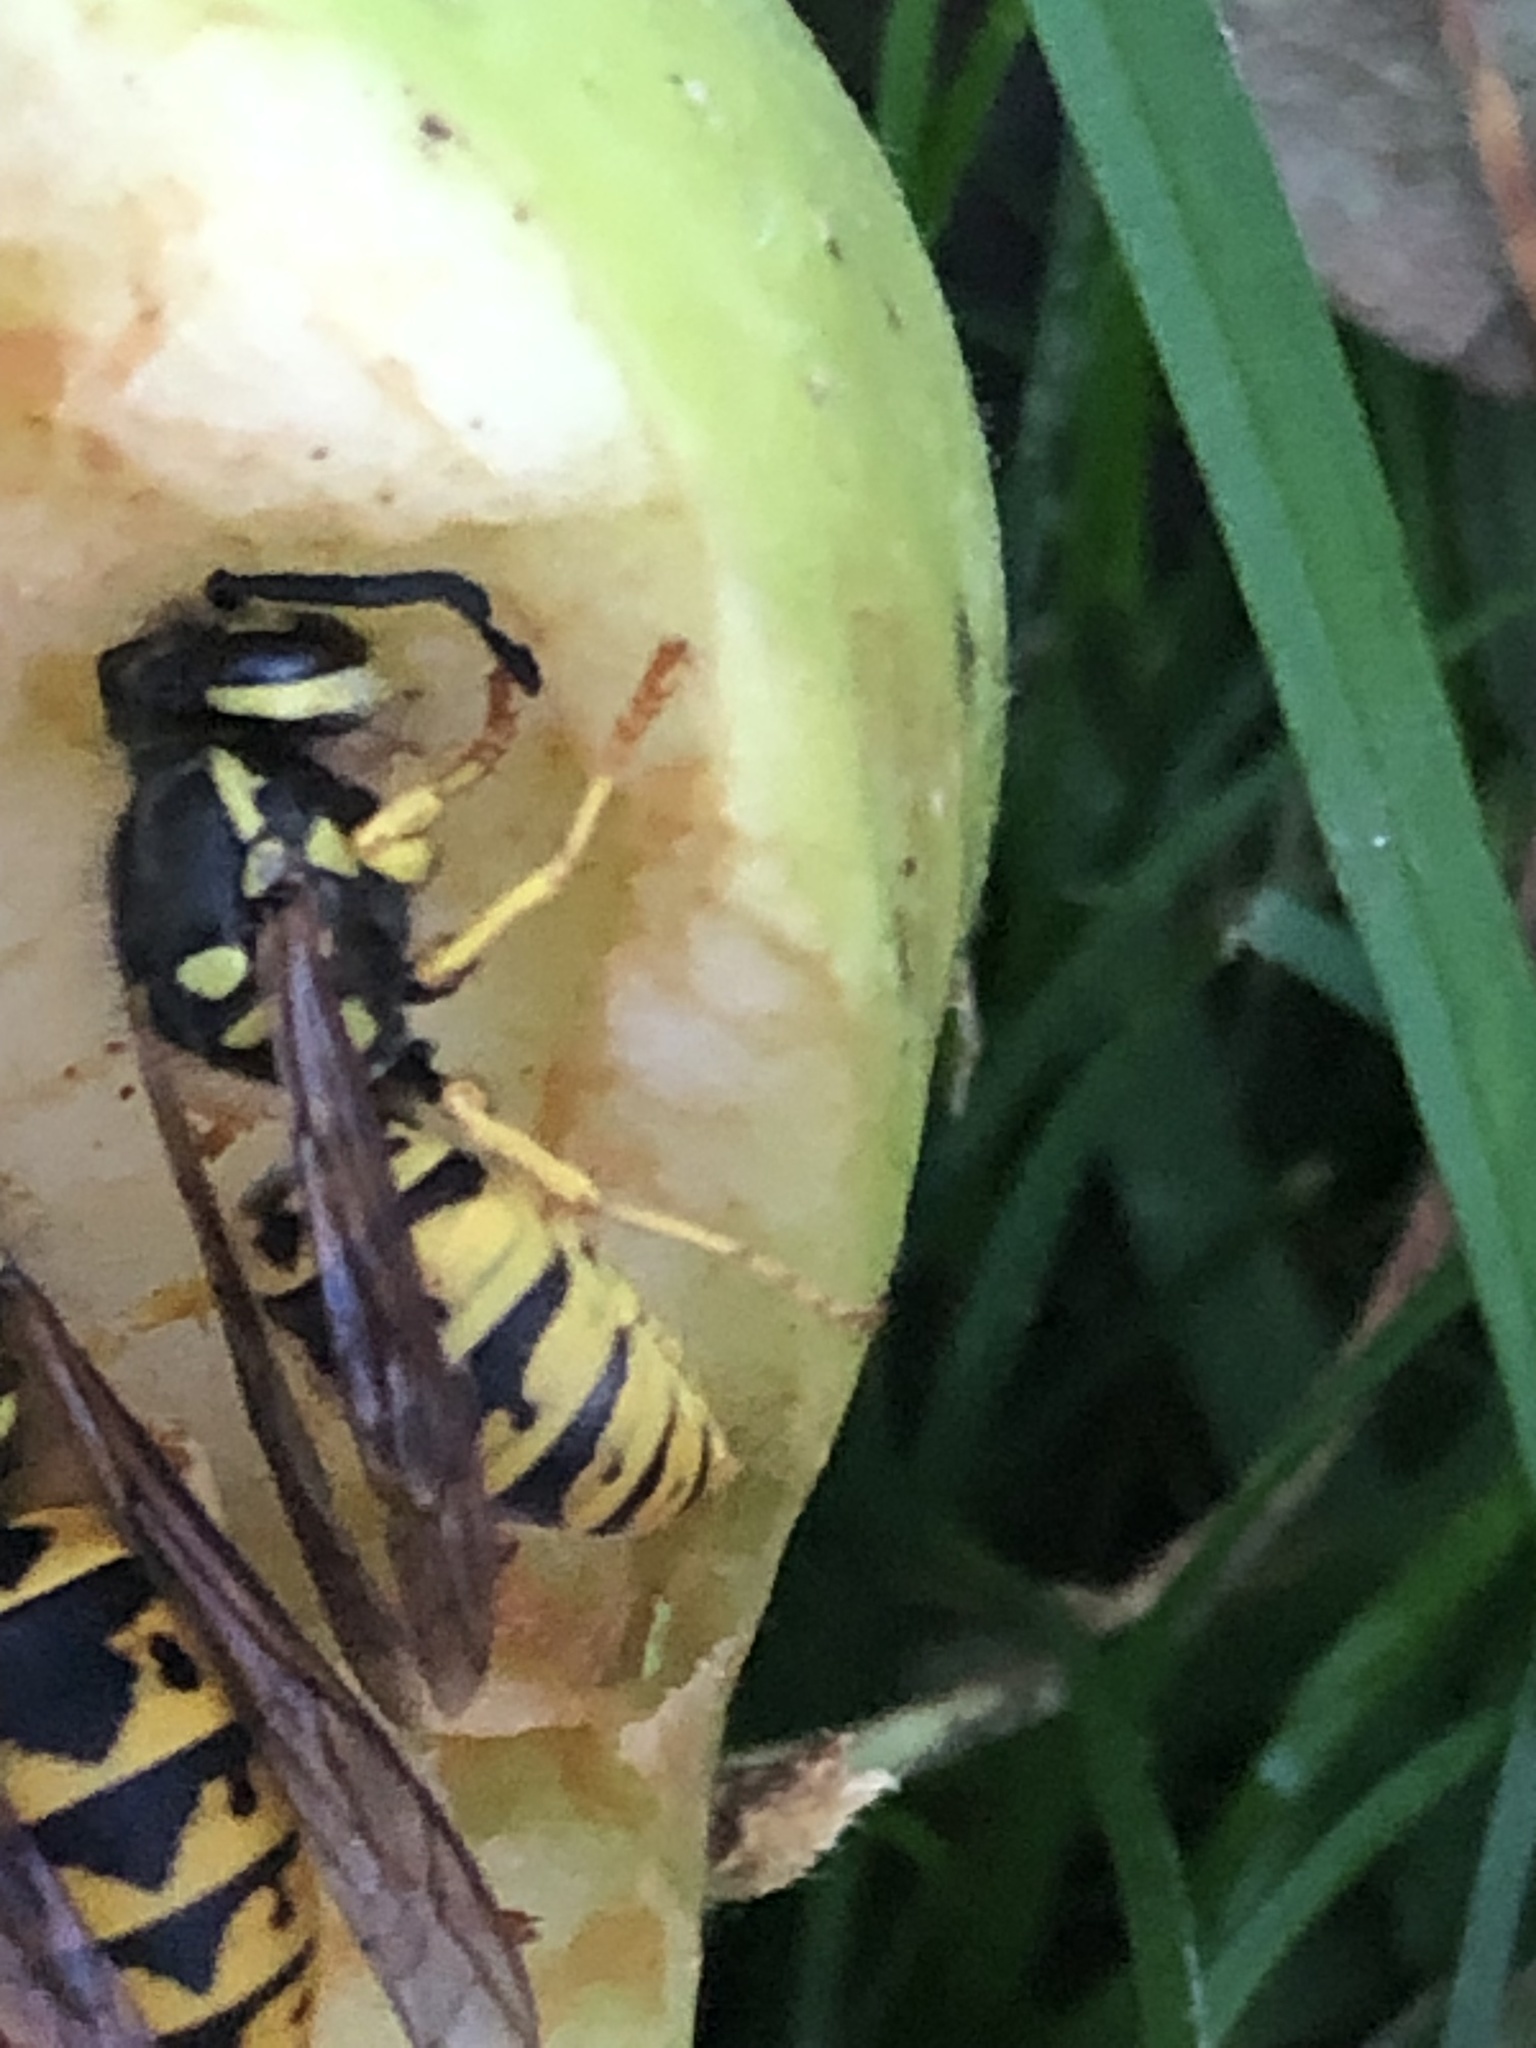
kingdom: Animalia
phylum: Arthropoda
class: Insecta
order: Hymenoptera
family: Vespidae
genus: Vespula
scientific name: Vespula germanica
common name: German wasp
